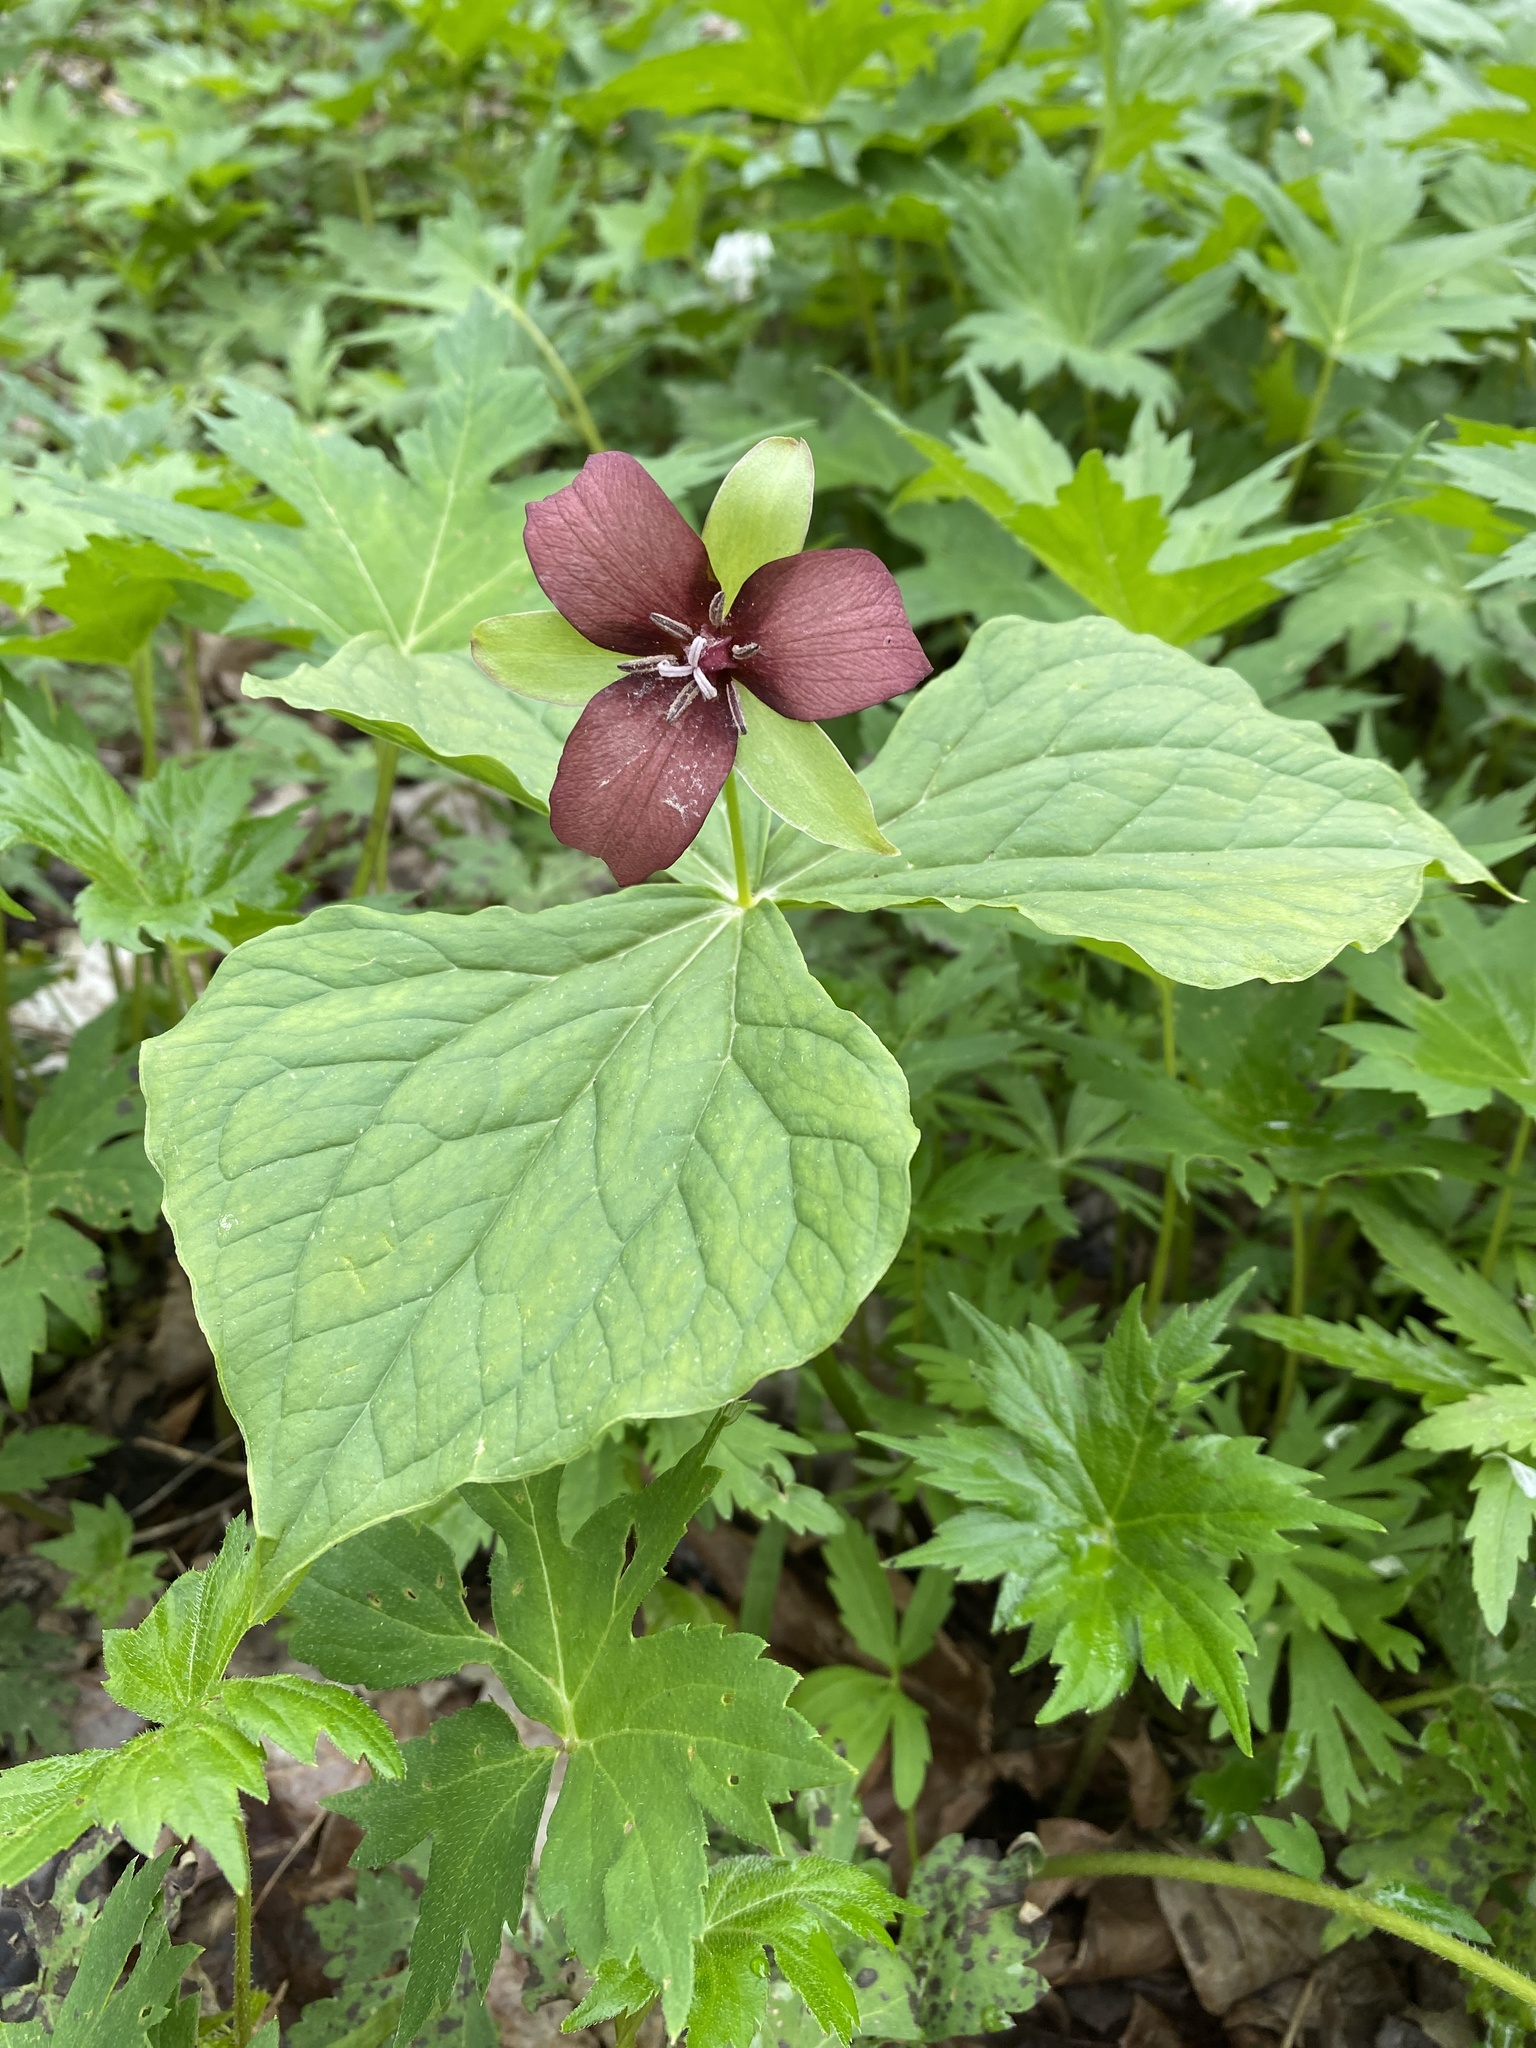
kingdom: Plantae
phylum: Tracheophyta
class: Liliopsida
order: Liliales
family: Melanthiaceae
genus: Trillium
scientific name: Trillium erectum
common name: Purple trillium
